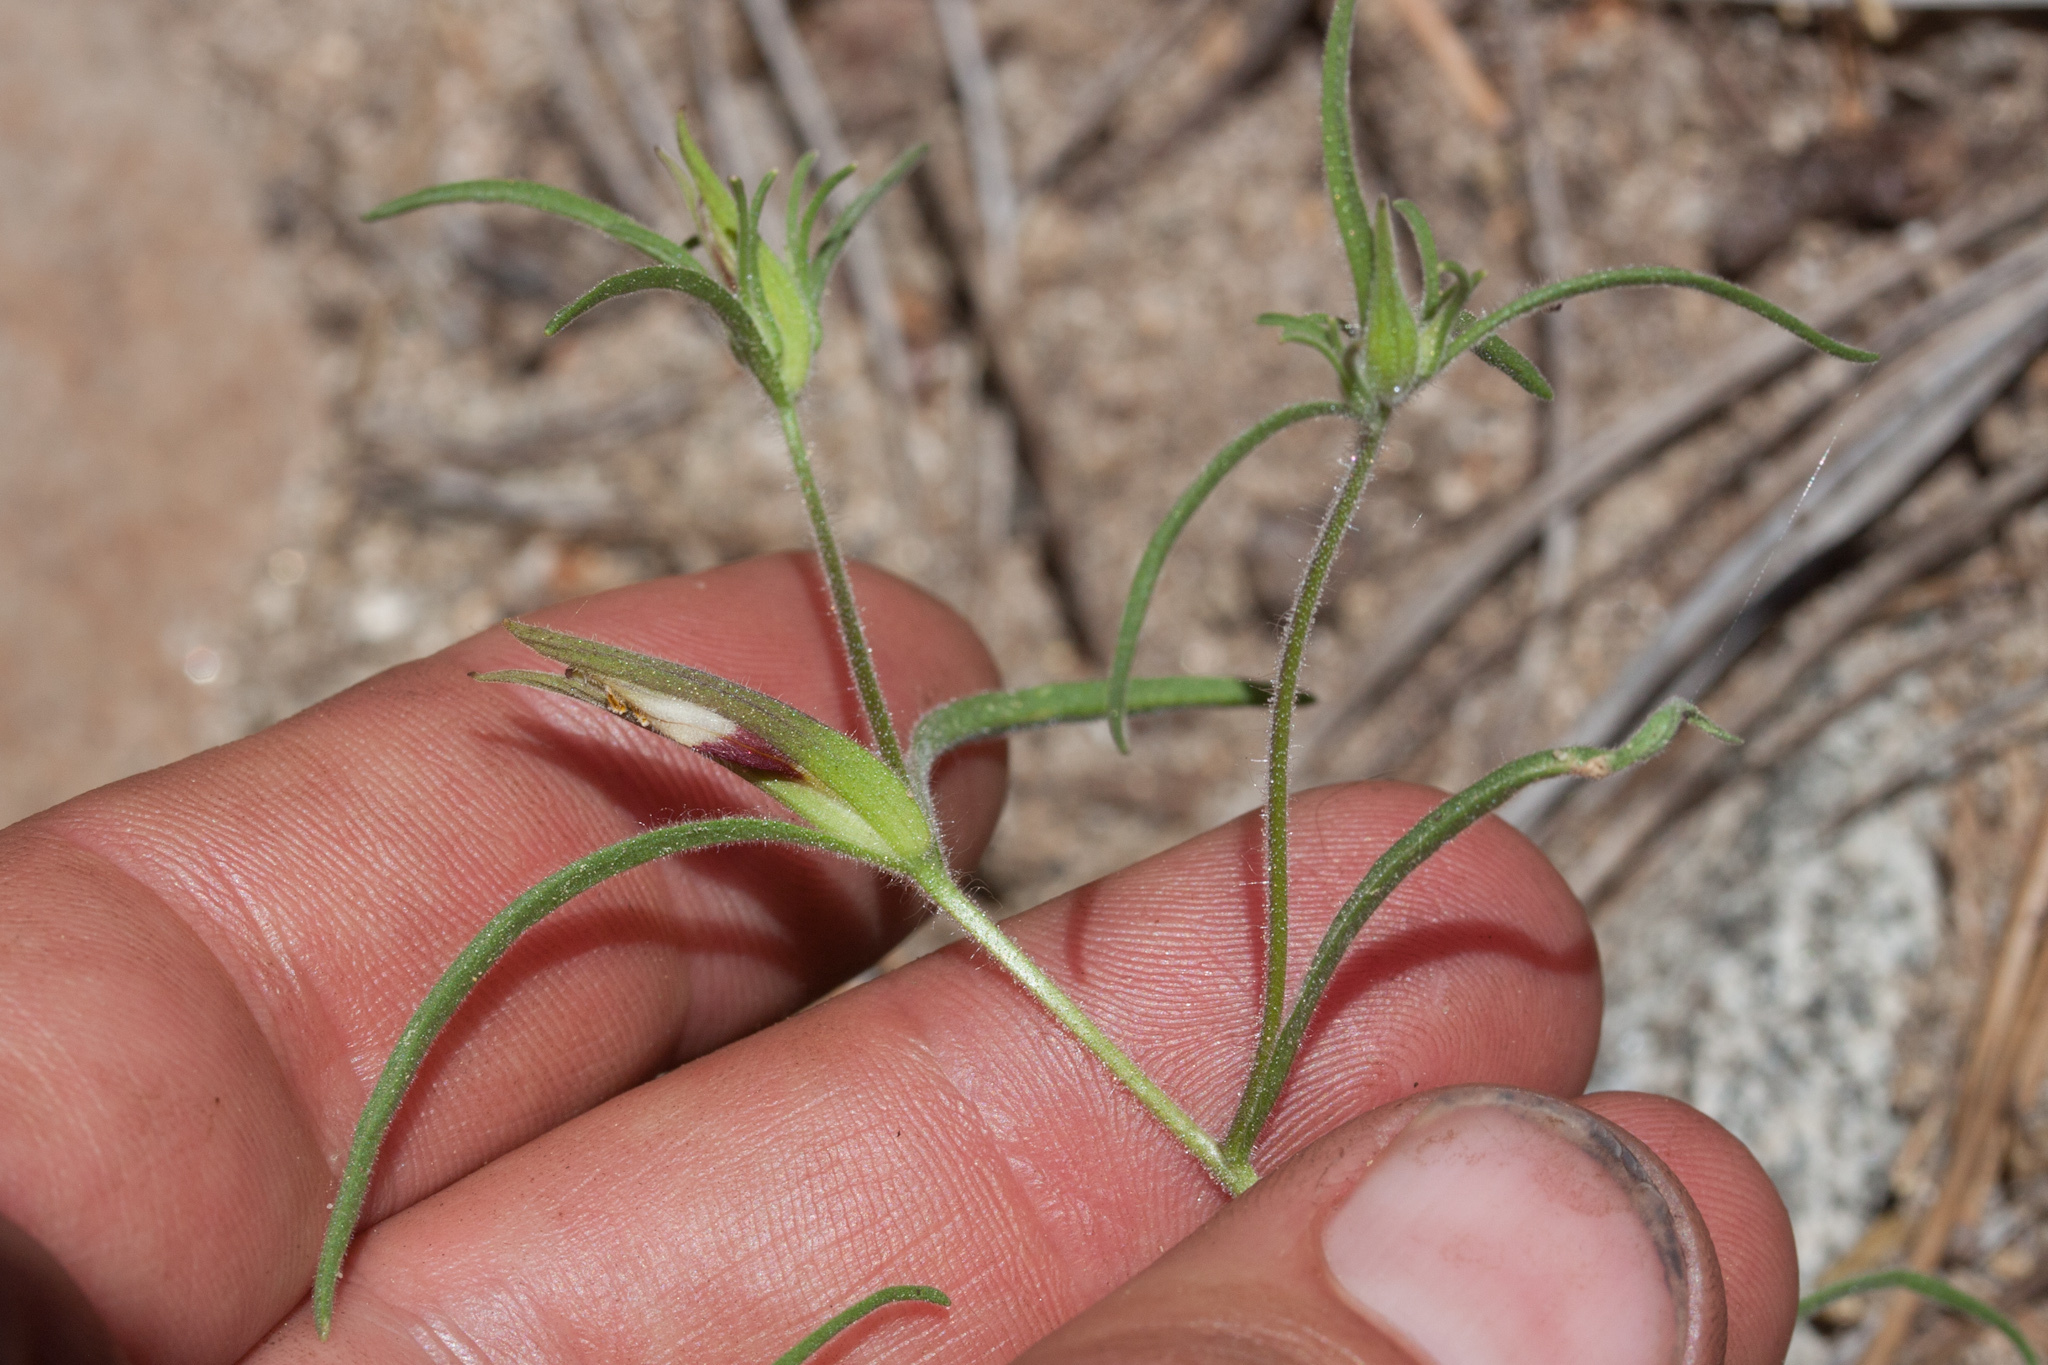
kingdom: Plantae
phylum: Tracheophyta
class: Magnoliopsida
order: Lamiales
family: Orobanchaceae
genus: Cordylanthus
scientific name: Cordylanthus tenuis
